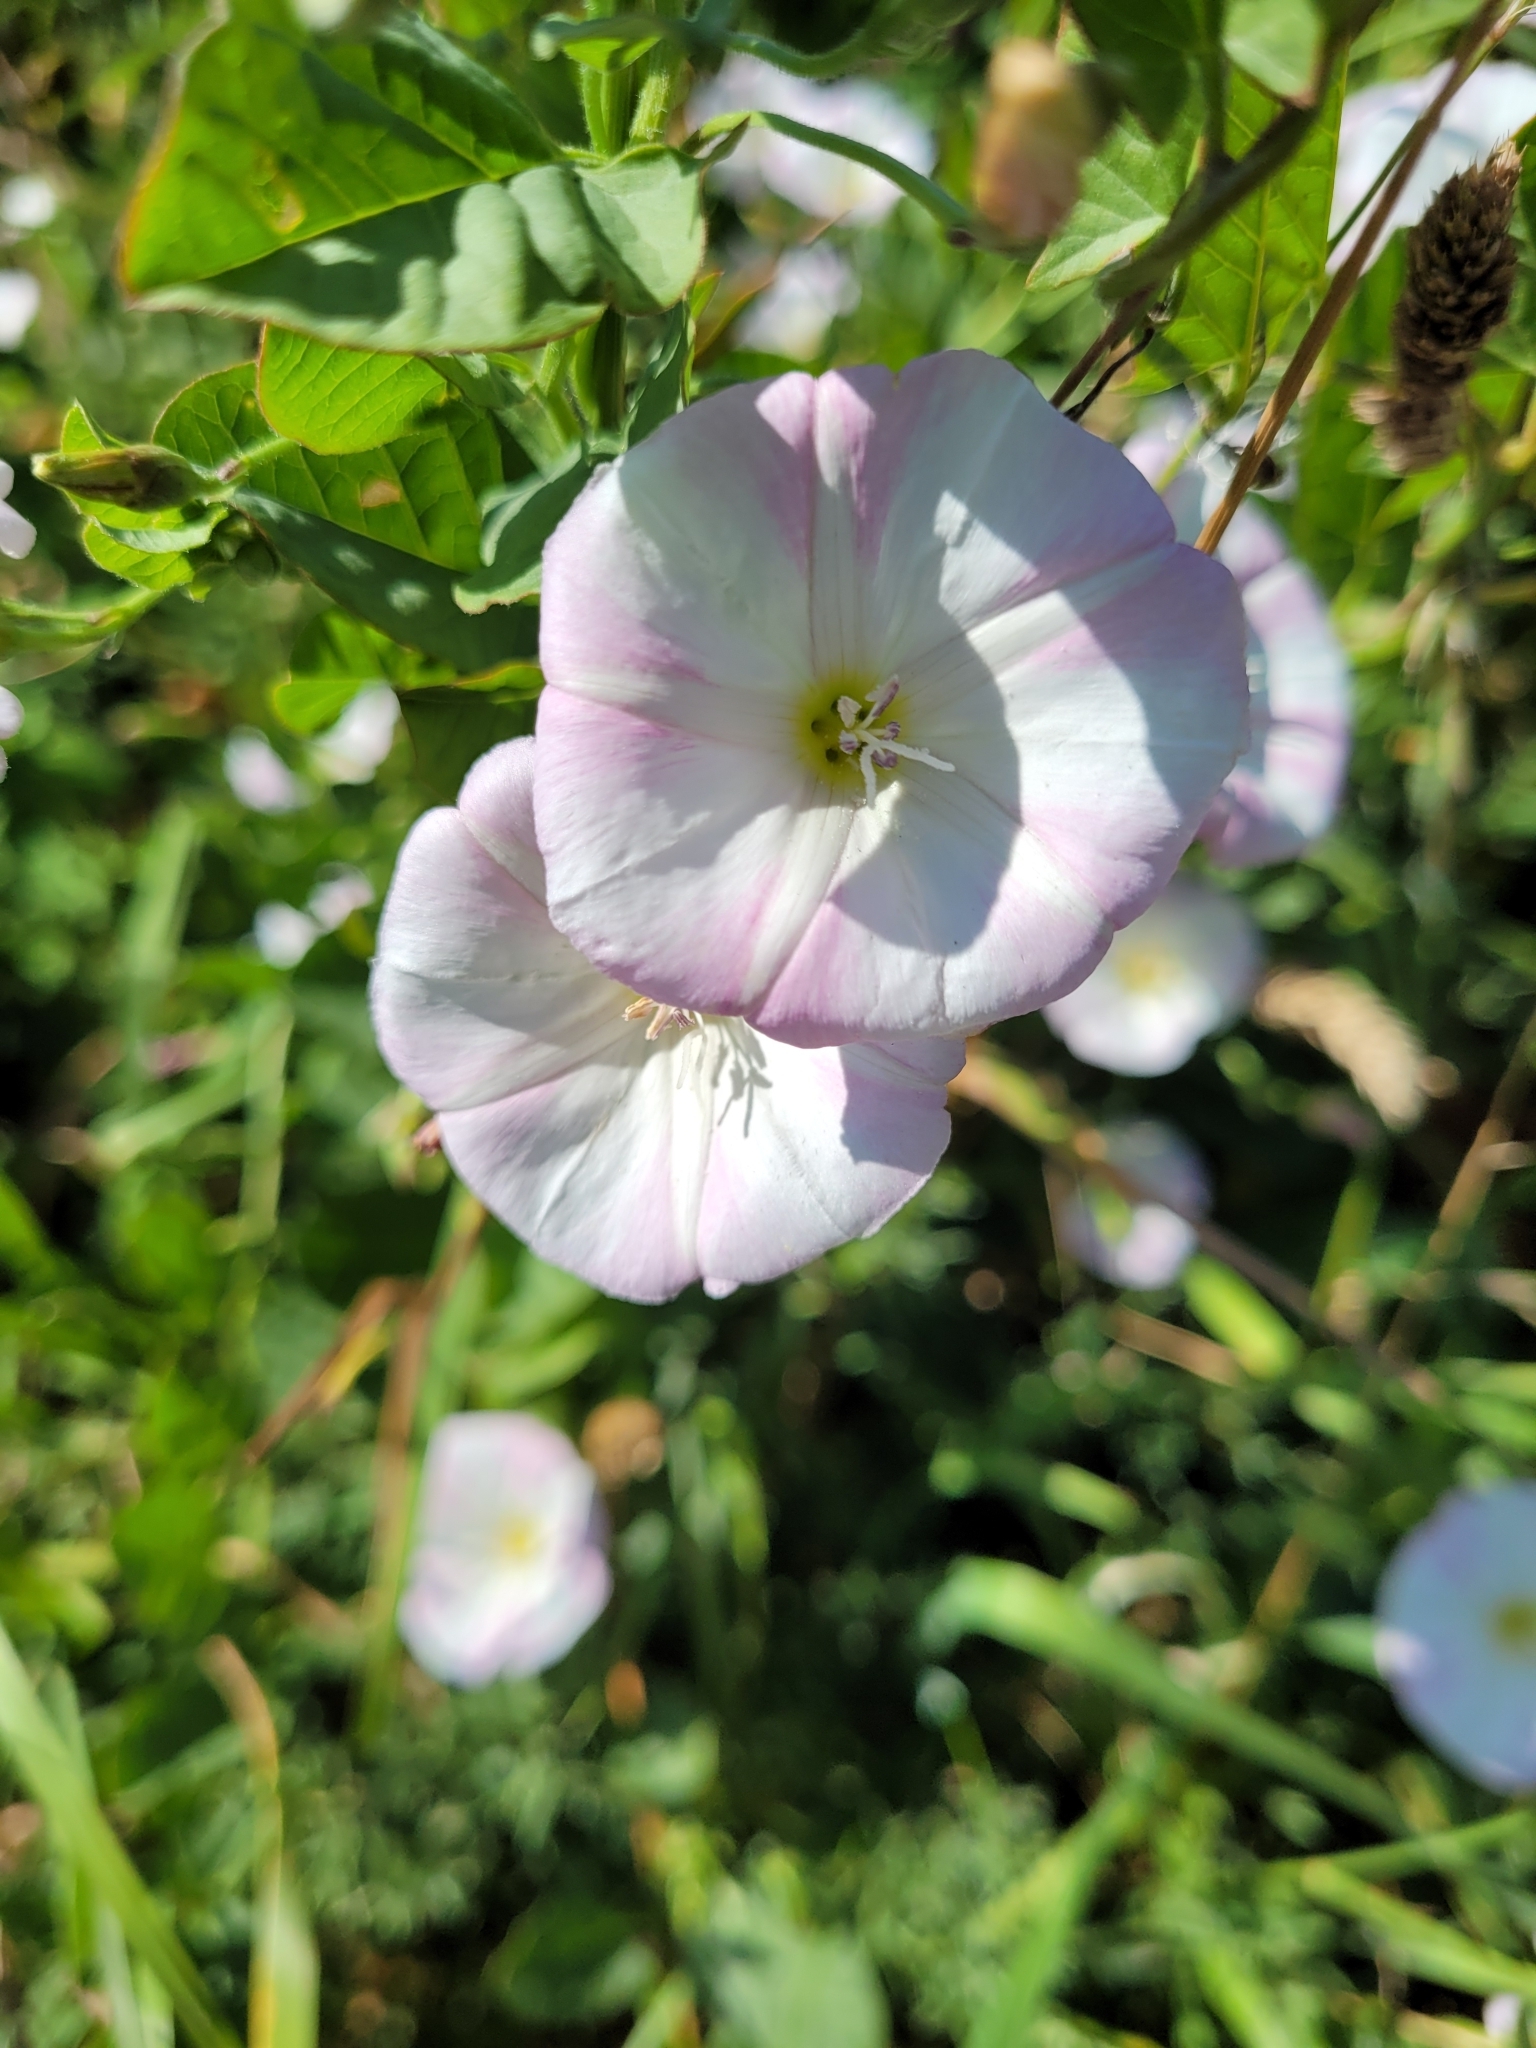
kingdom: Plantae
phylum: Tracheophyta
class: Magnoliopsida
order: Solanales
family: Convolvulaceae
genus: Convolvulus
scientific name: Convolvulus arvensis
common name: Field bindweed
